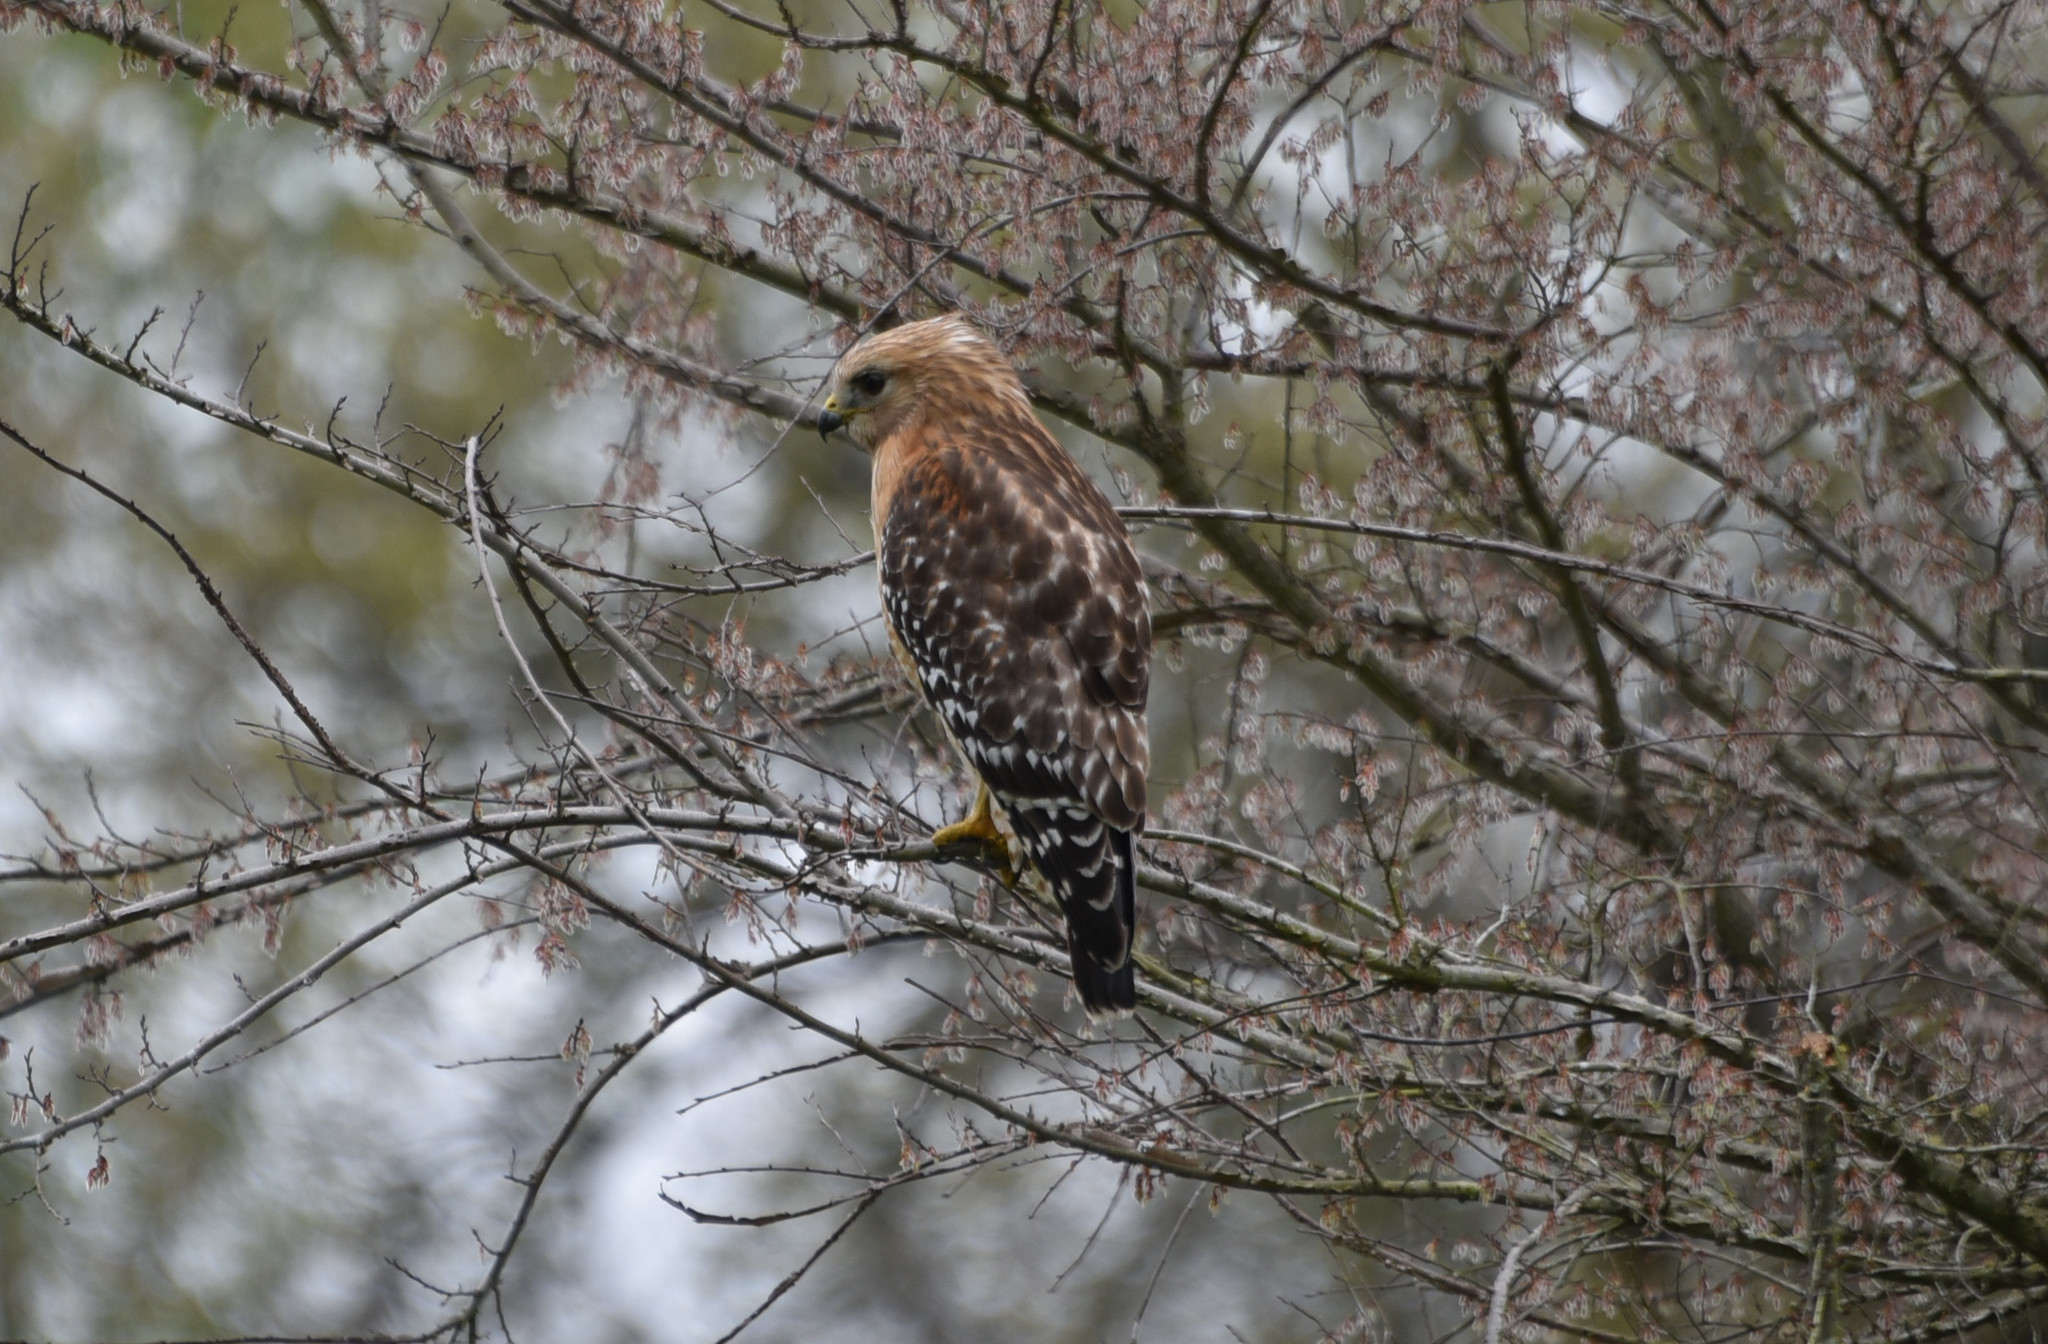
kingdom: Animalia
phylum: Chordata
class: Aves
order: Accipitriformes
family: Accipitridae
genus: Buteo
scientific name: Buteo lineatus
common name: Red-shouldered hawk
